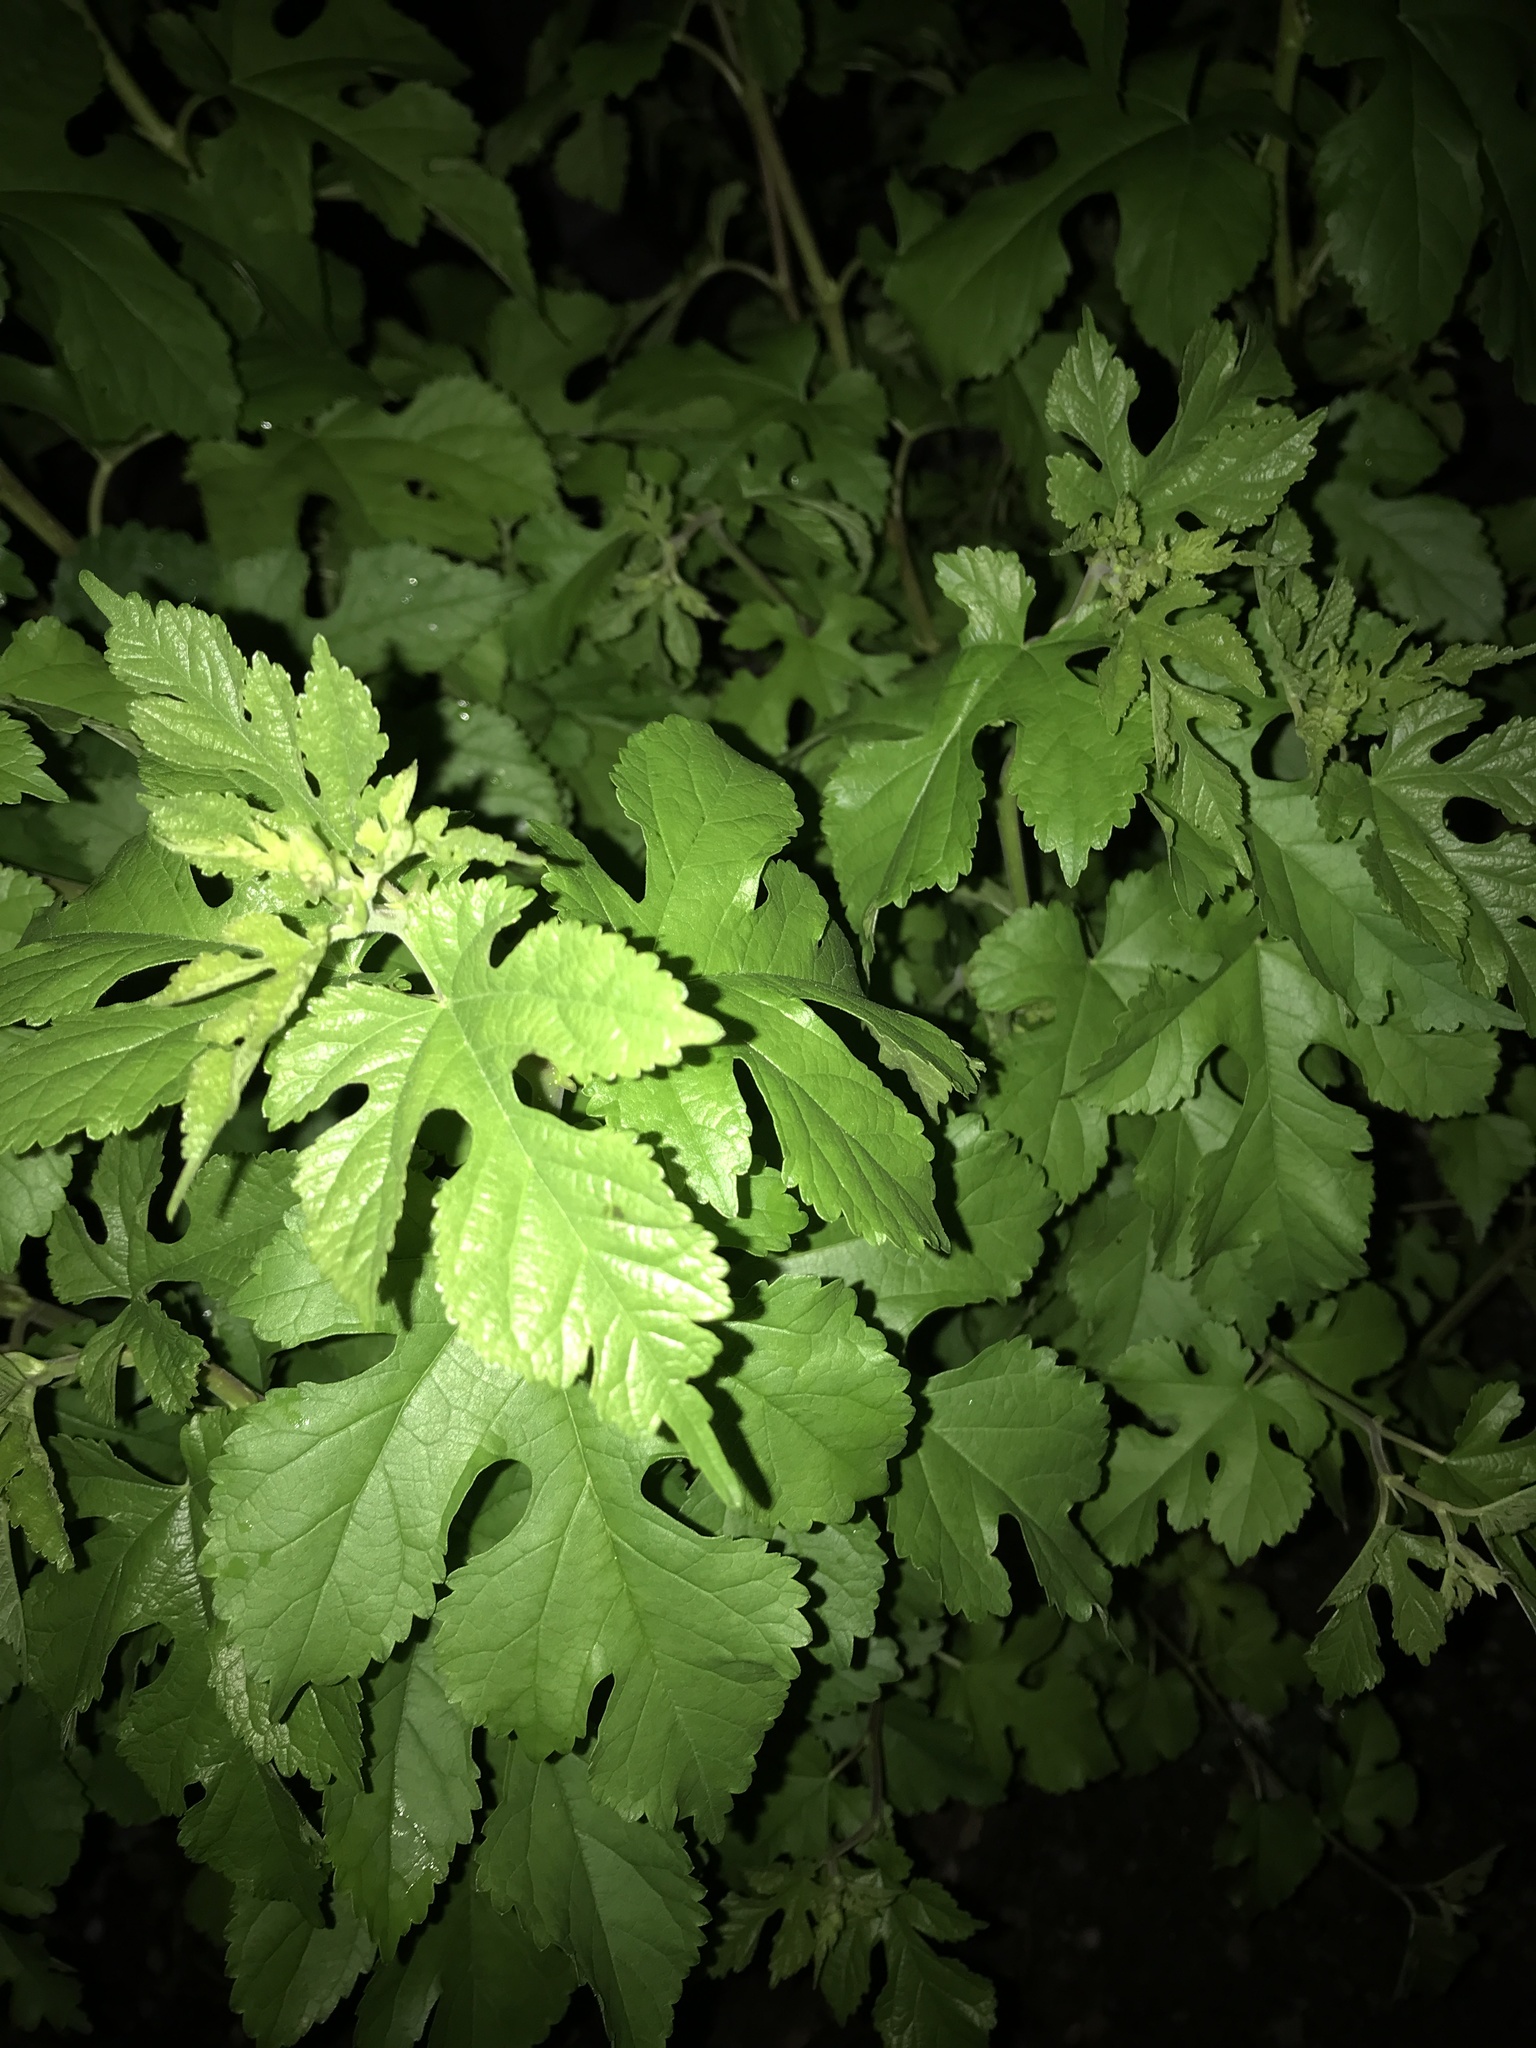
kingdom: Plantae
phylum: Tracheophyta
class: Magnoliopsida
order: Rosales
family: Moraceae
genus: Morus
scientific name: Morus alba
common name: White mulberry
